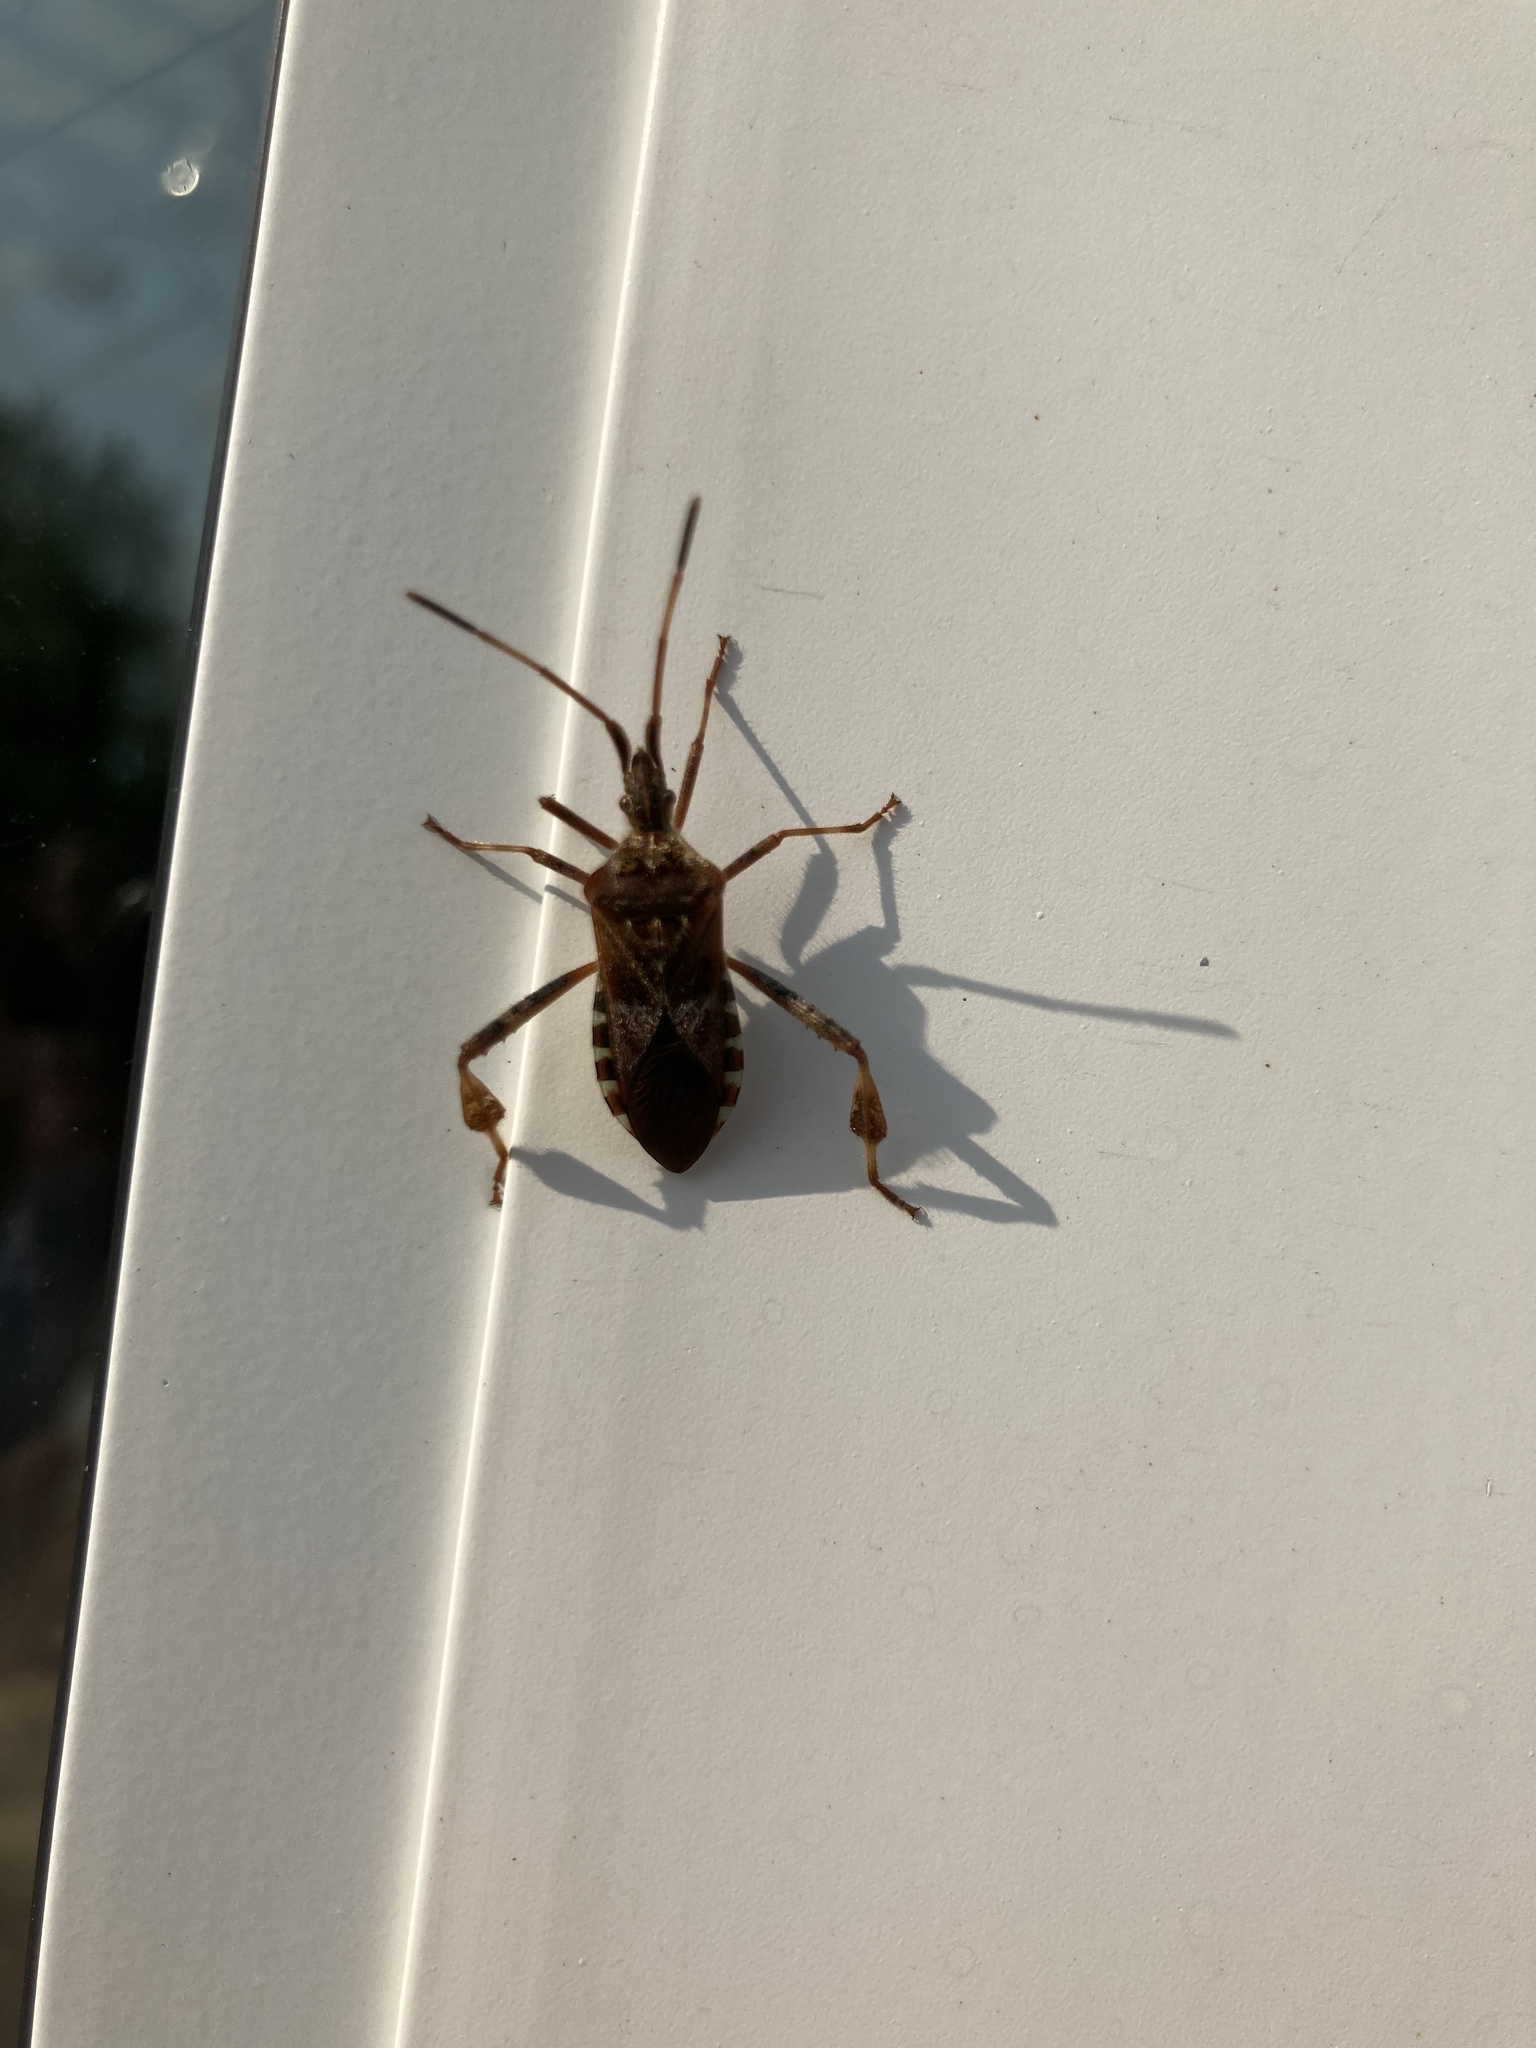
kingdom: Animalia
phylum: Arthropoda
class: Insecta
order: Hemiptera
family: Coreidae
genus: Leptoglossus
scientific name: Leptoglossus occidentalis
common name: Western conifer-seed bug
